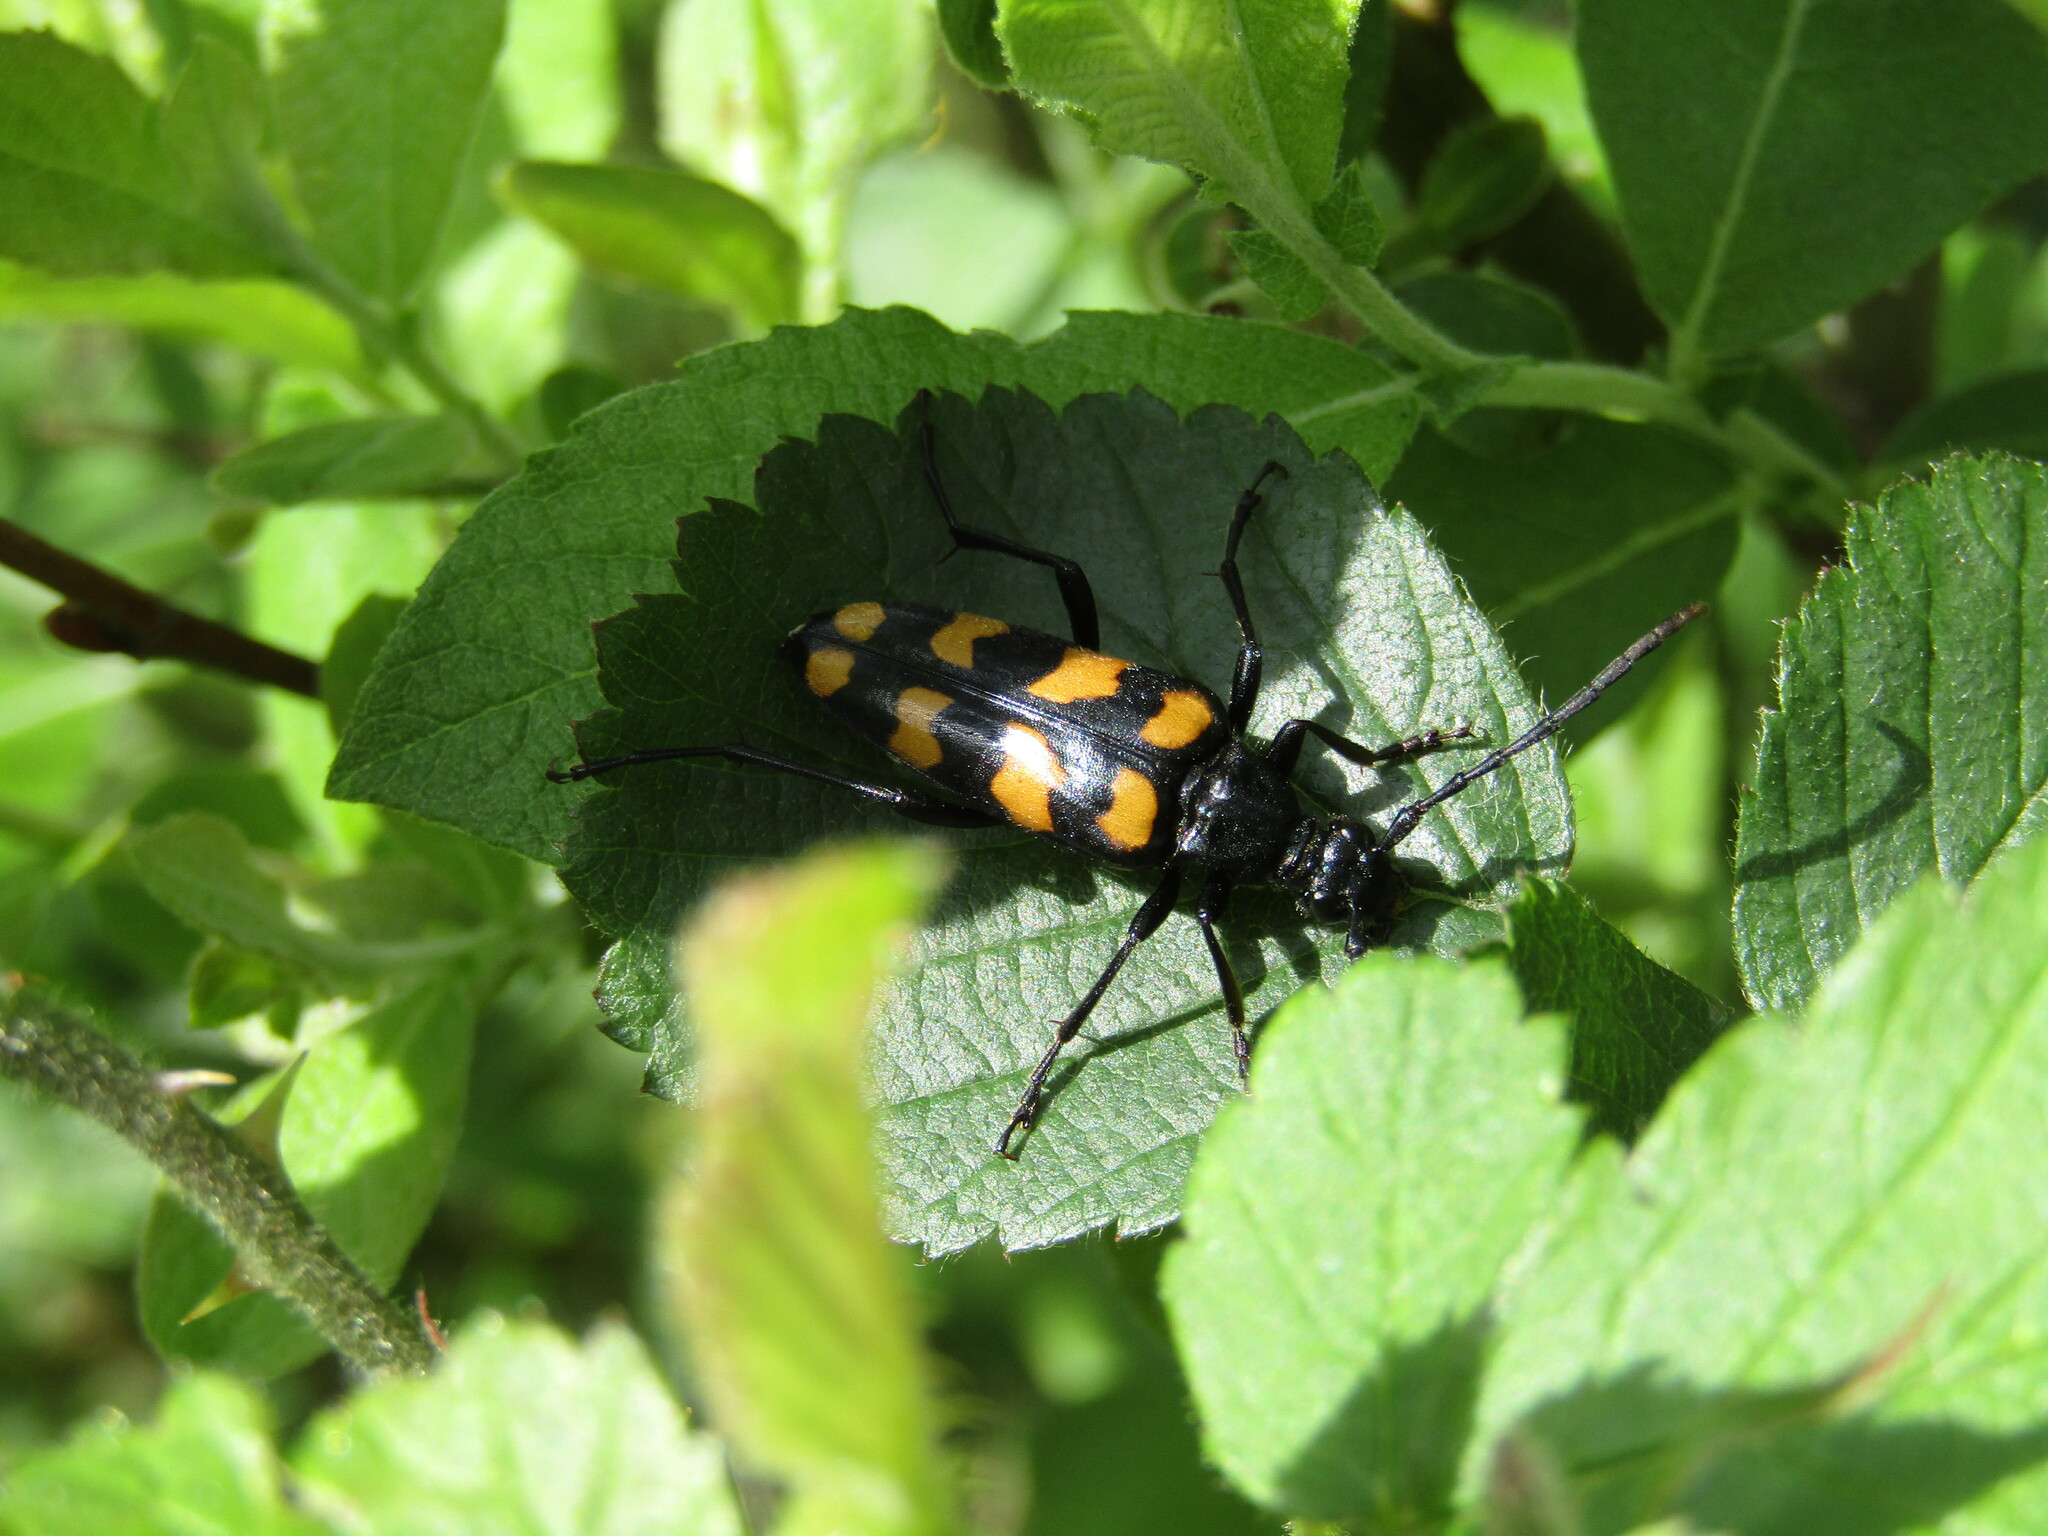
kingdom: Animalia
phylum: Arthropoda
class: Insecta
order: Coleoptera
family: Cerambycidae
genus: Leptura
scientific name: Leptura quadrifasciata
